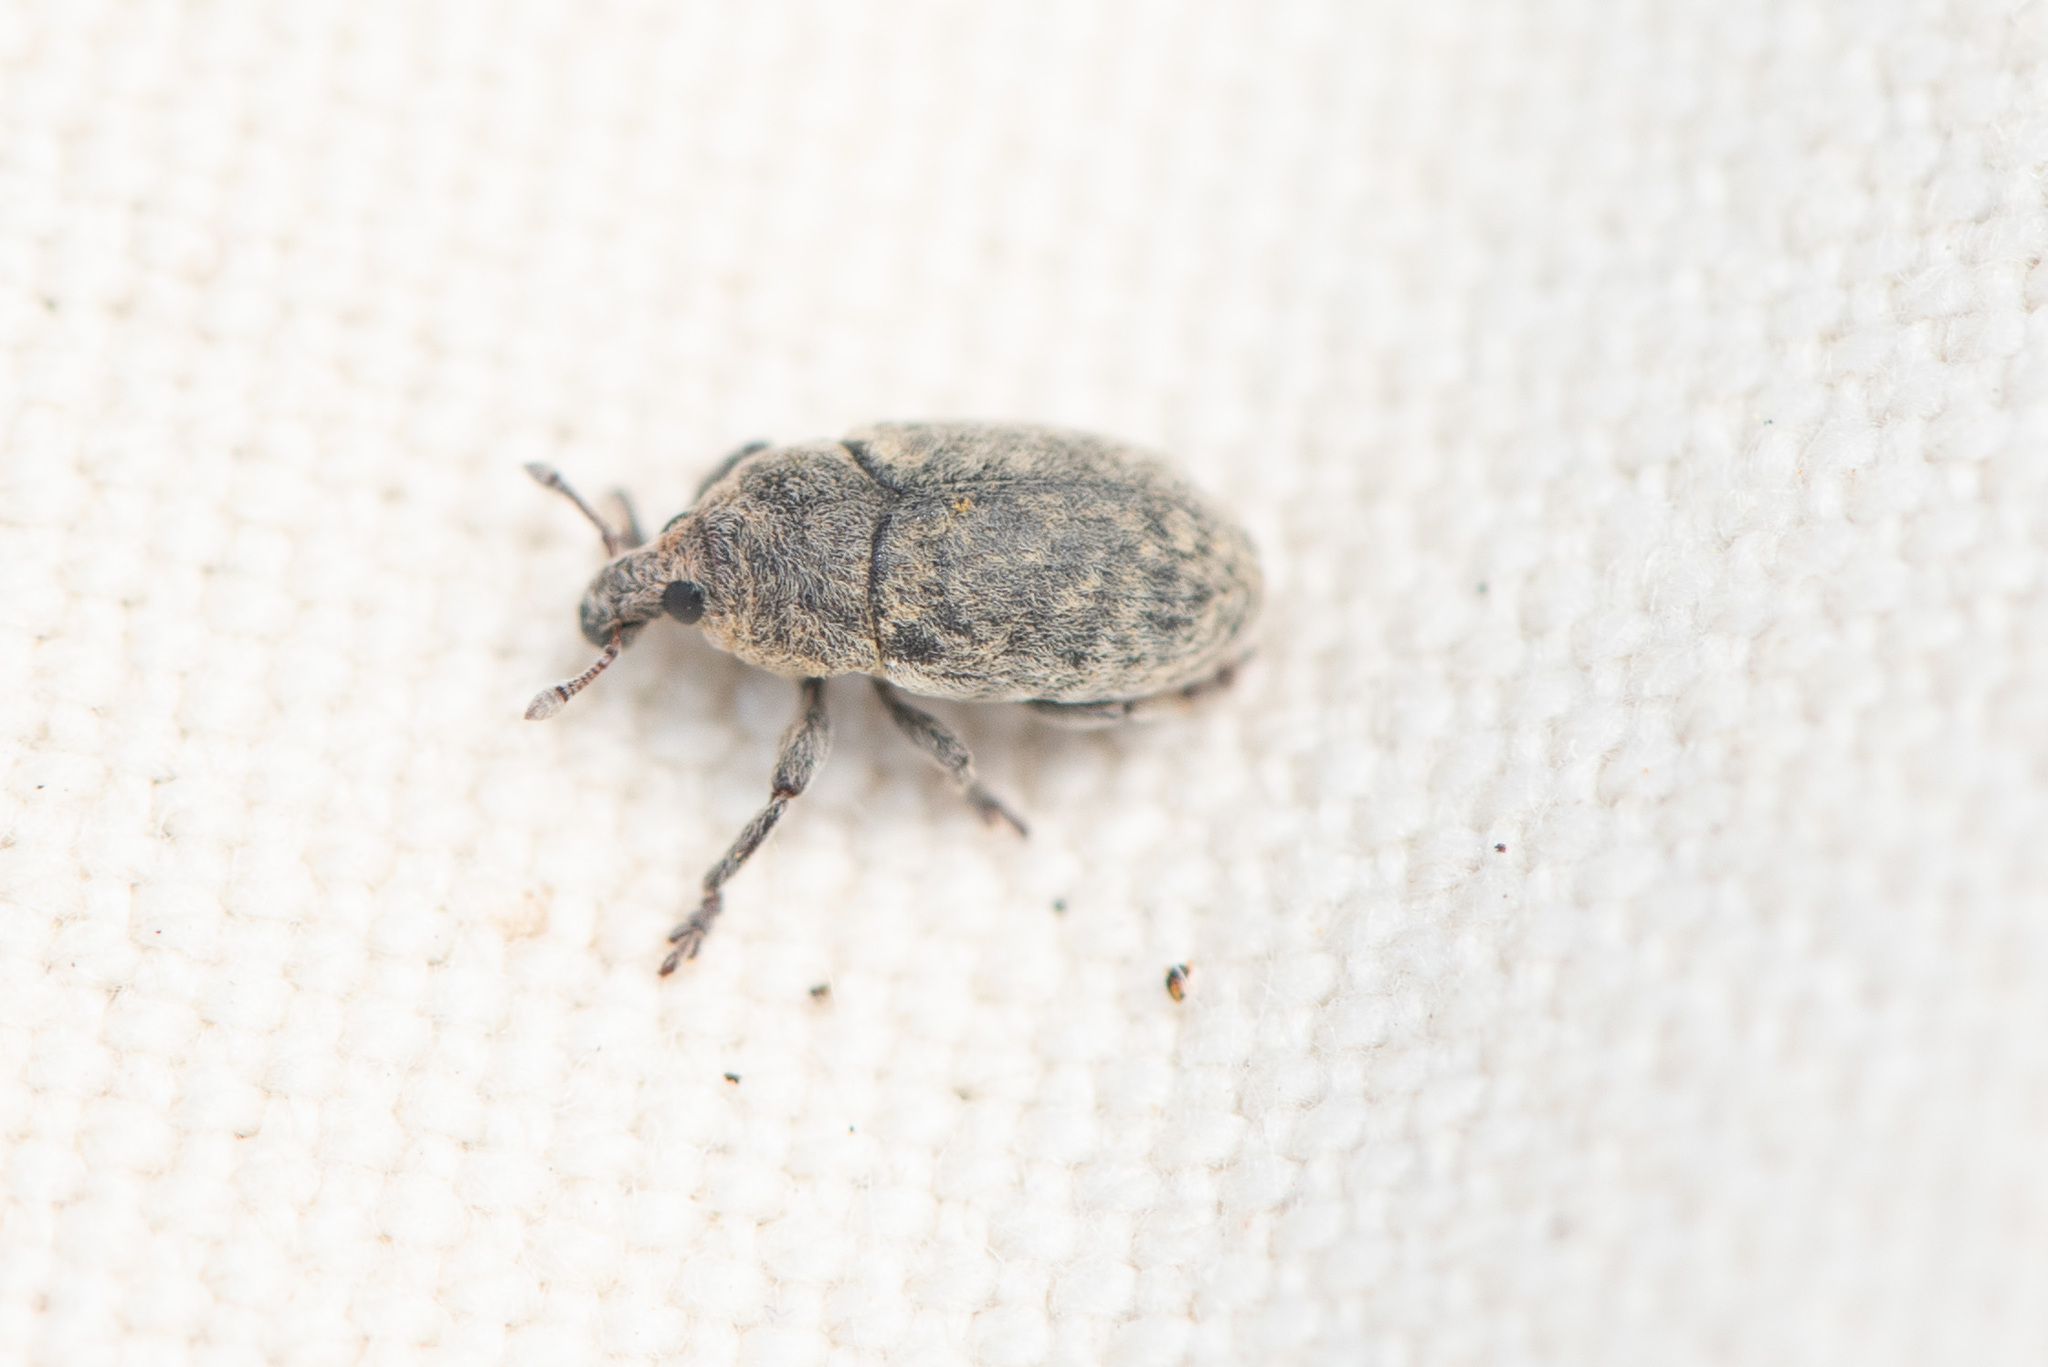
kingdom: Animalia
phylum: Arthropoda
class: Insecta
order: Coleoptera
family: Curculionidae
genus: Larinus
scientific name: Larinus minutus
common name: Weevil
